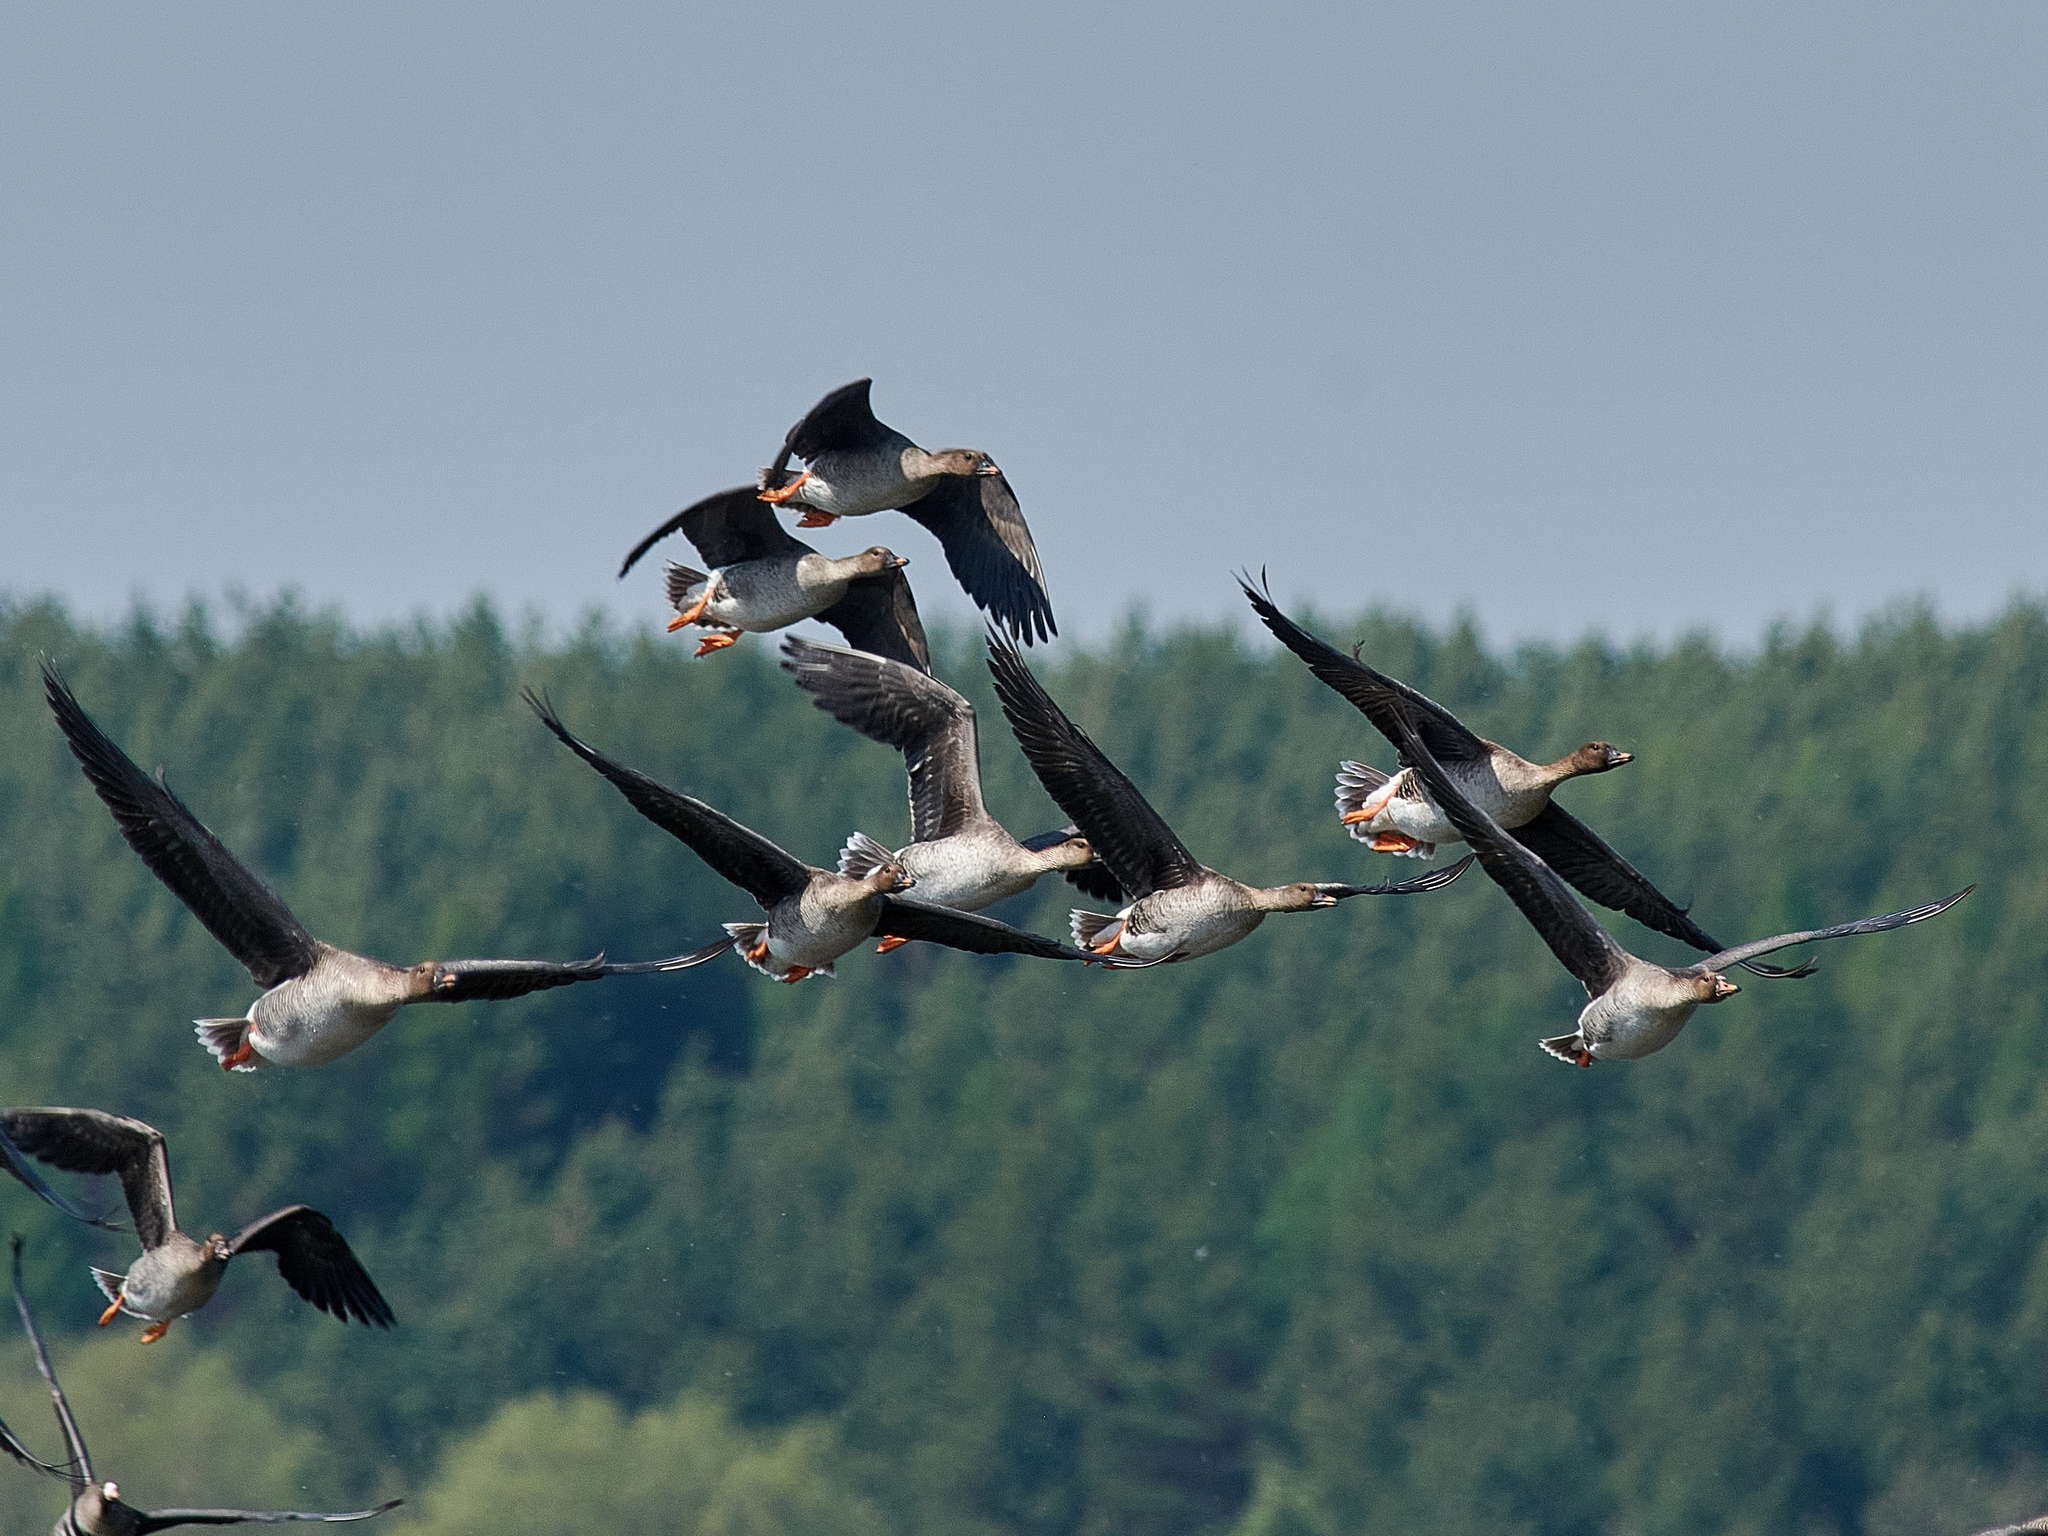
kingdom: Animalia
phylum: Chordata
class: Aves
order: Anseriformes
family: Anatidae
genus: Anser
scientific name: Anser fabalis
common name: Bean goose
